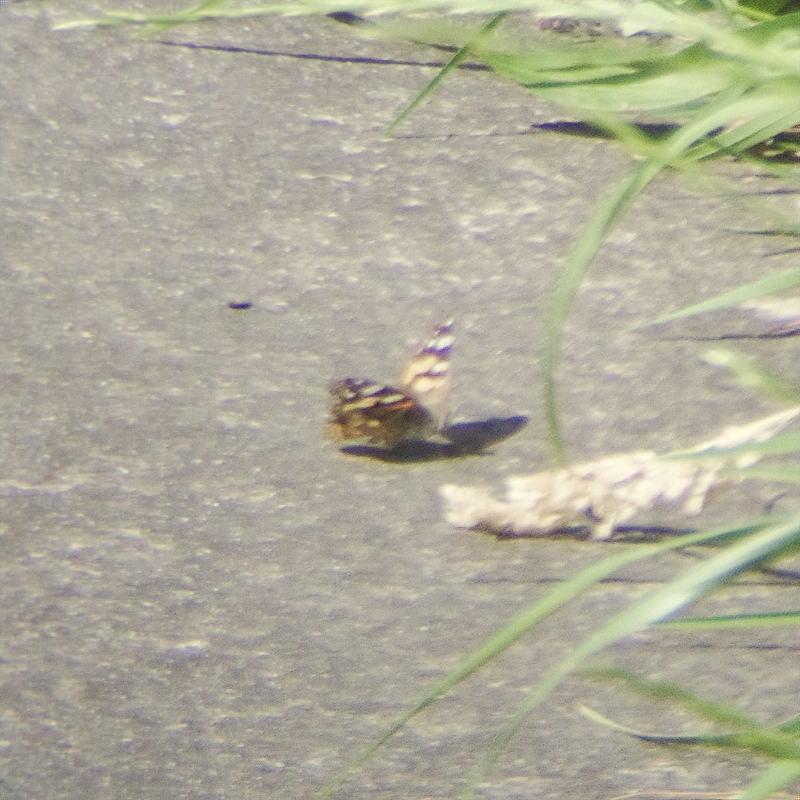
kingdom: Animalia
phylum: Arthropoda
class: Insecta
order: Lepidoptera
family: Nymphalidae
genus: Vanessa
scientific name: Vanessa kershawi
